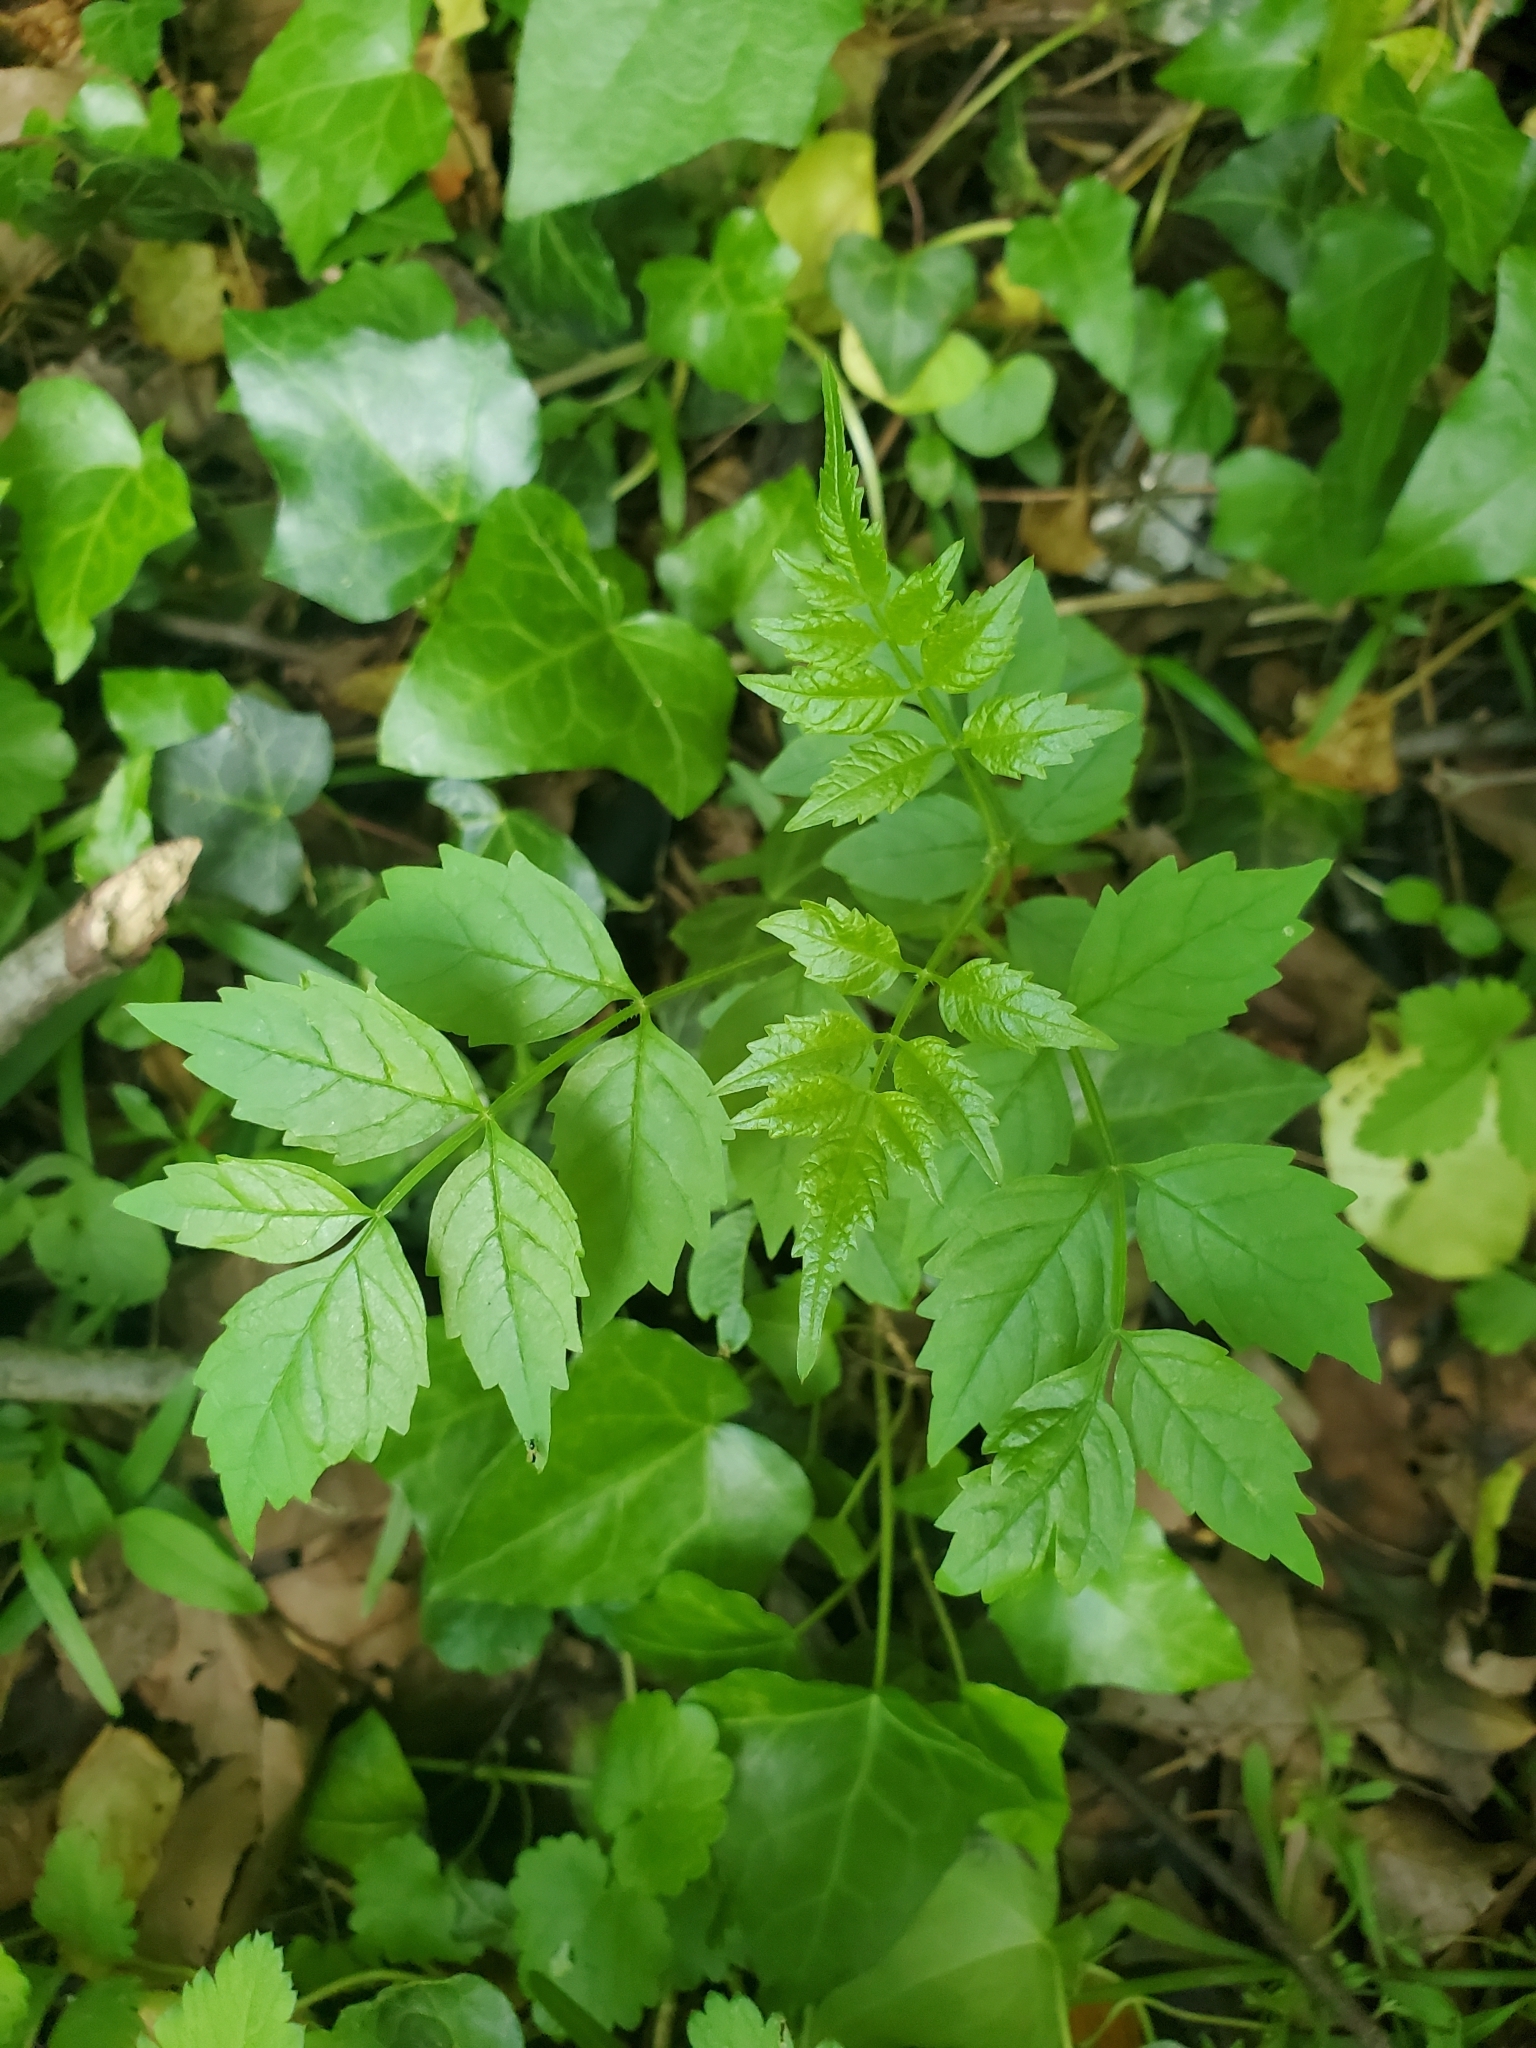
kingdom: Plantae
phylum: Tracheophyta
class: Magnoliopsida
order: Lamiales
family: Bignoniaceae
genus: Campsis
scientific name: Campsis radicans
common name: Trumpet-creeper
